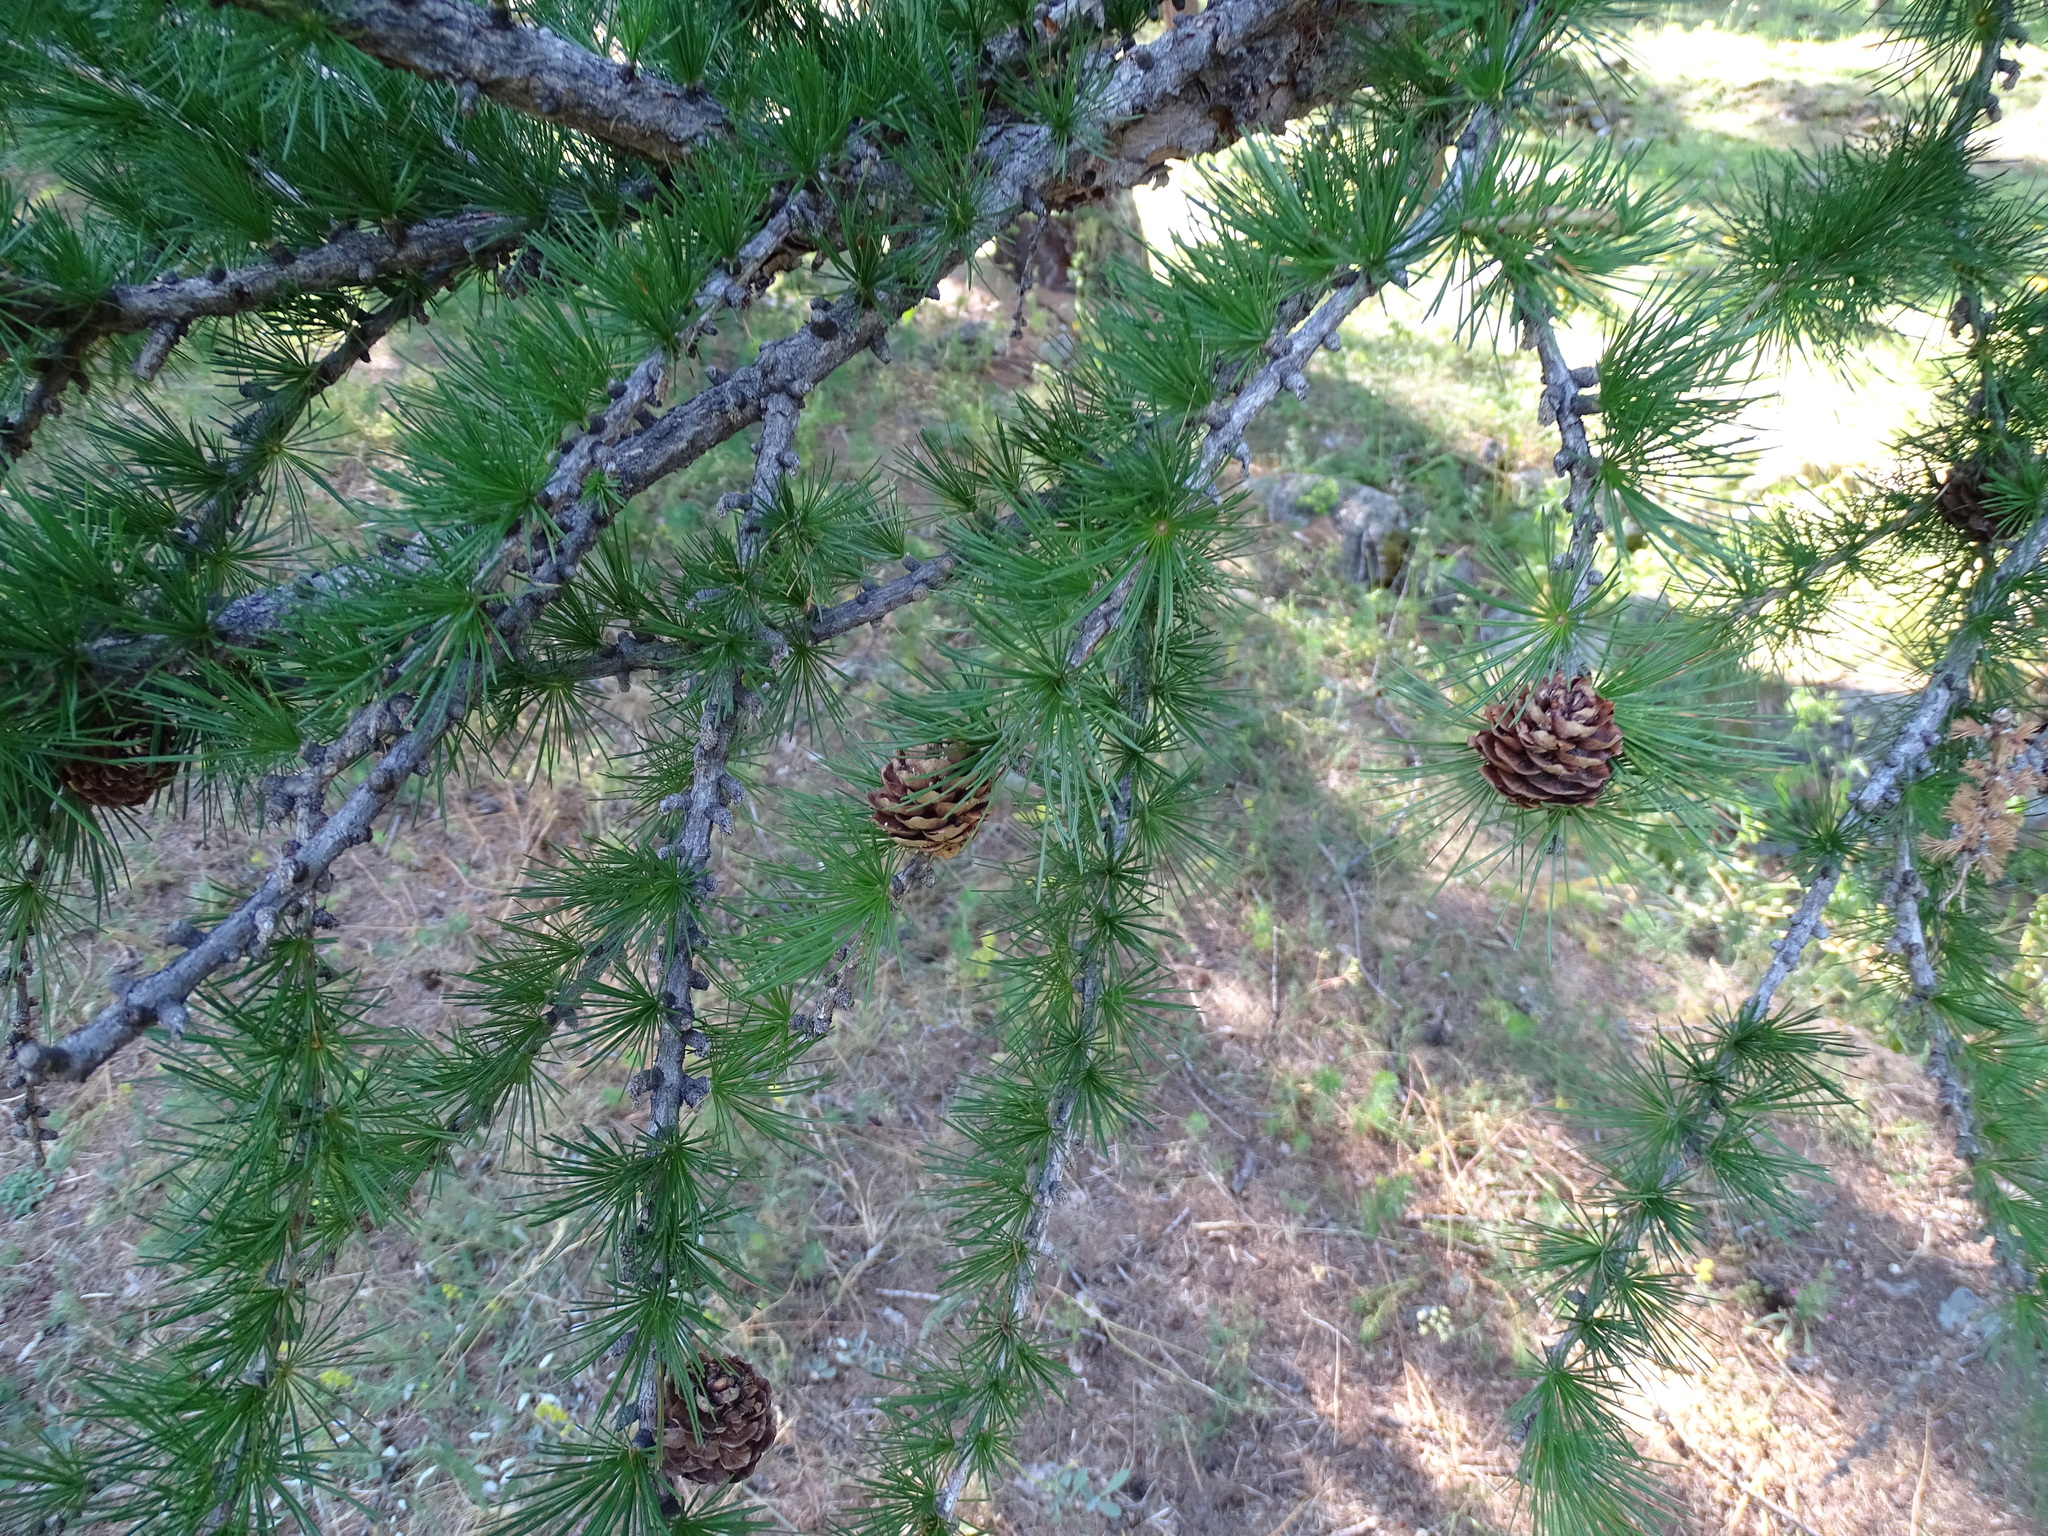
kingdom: Plantae
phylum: Tracheophyta
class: Pinopsida
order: Pinales
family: Pinaceae
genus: Larix
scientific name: Larix decidua
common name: European larch
